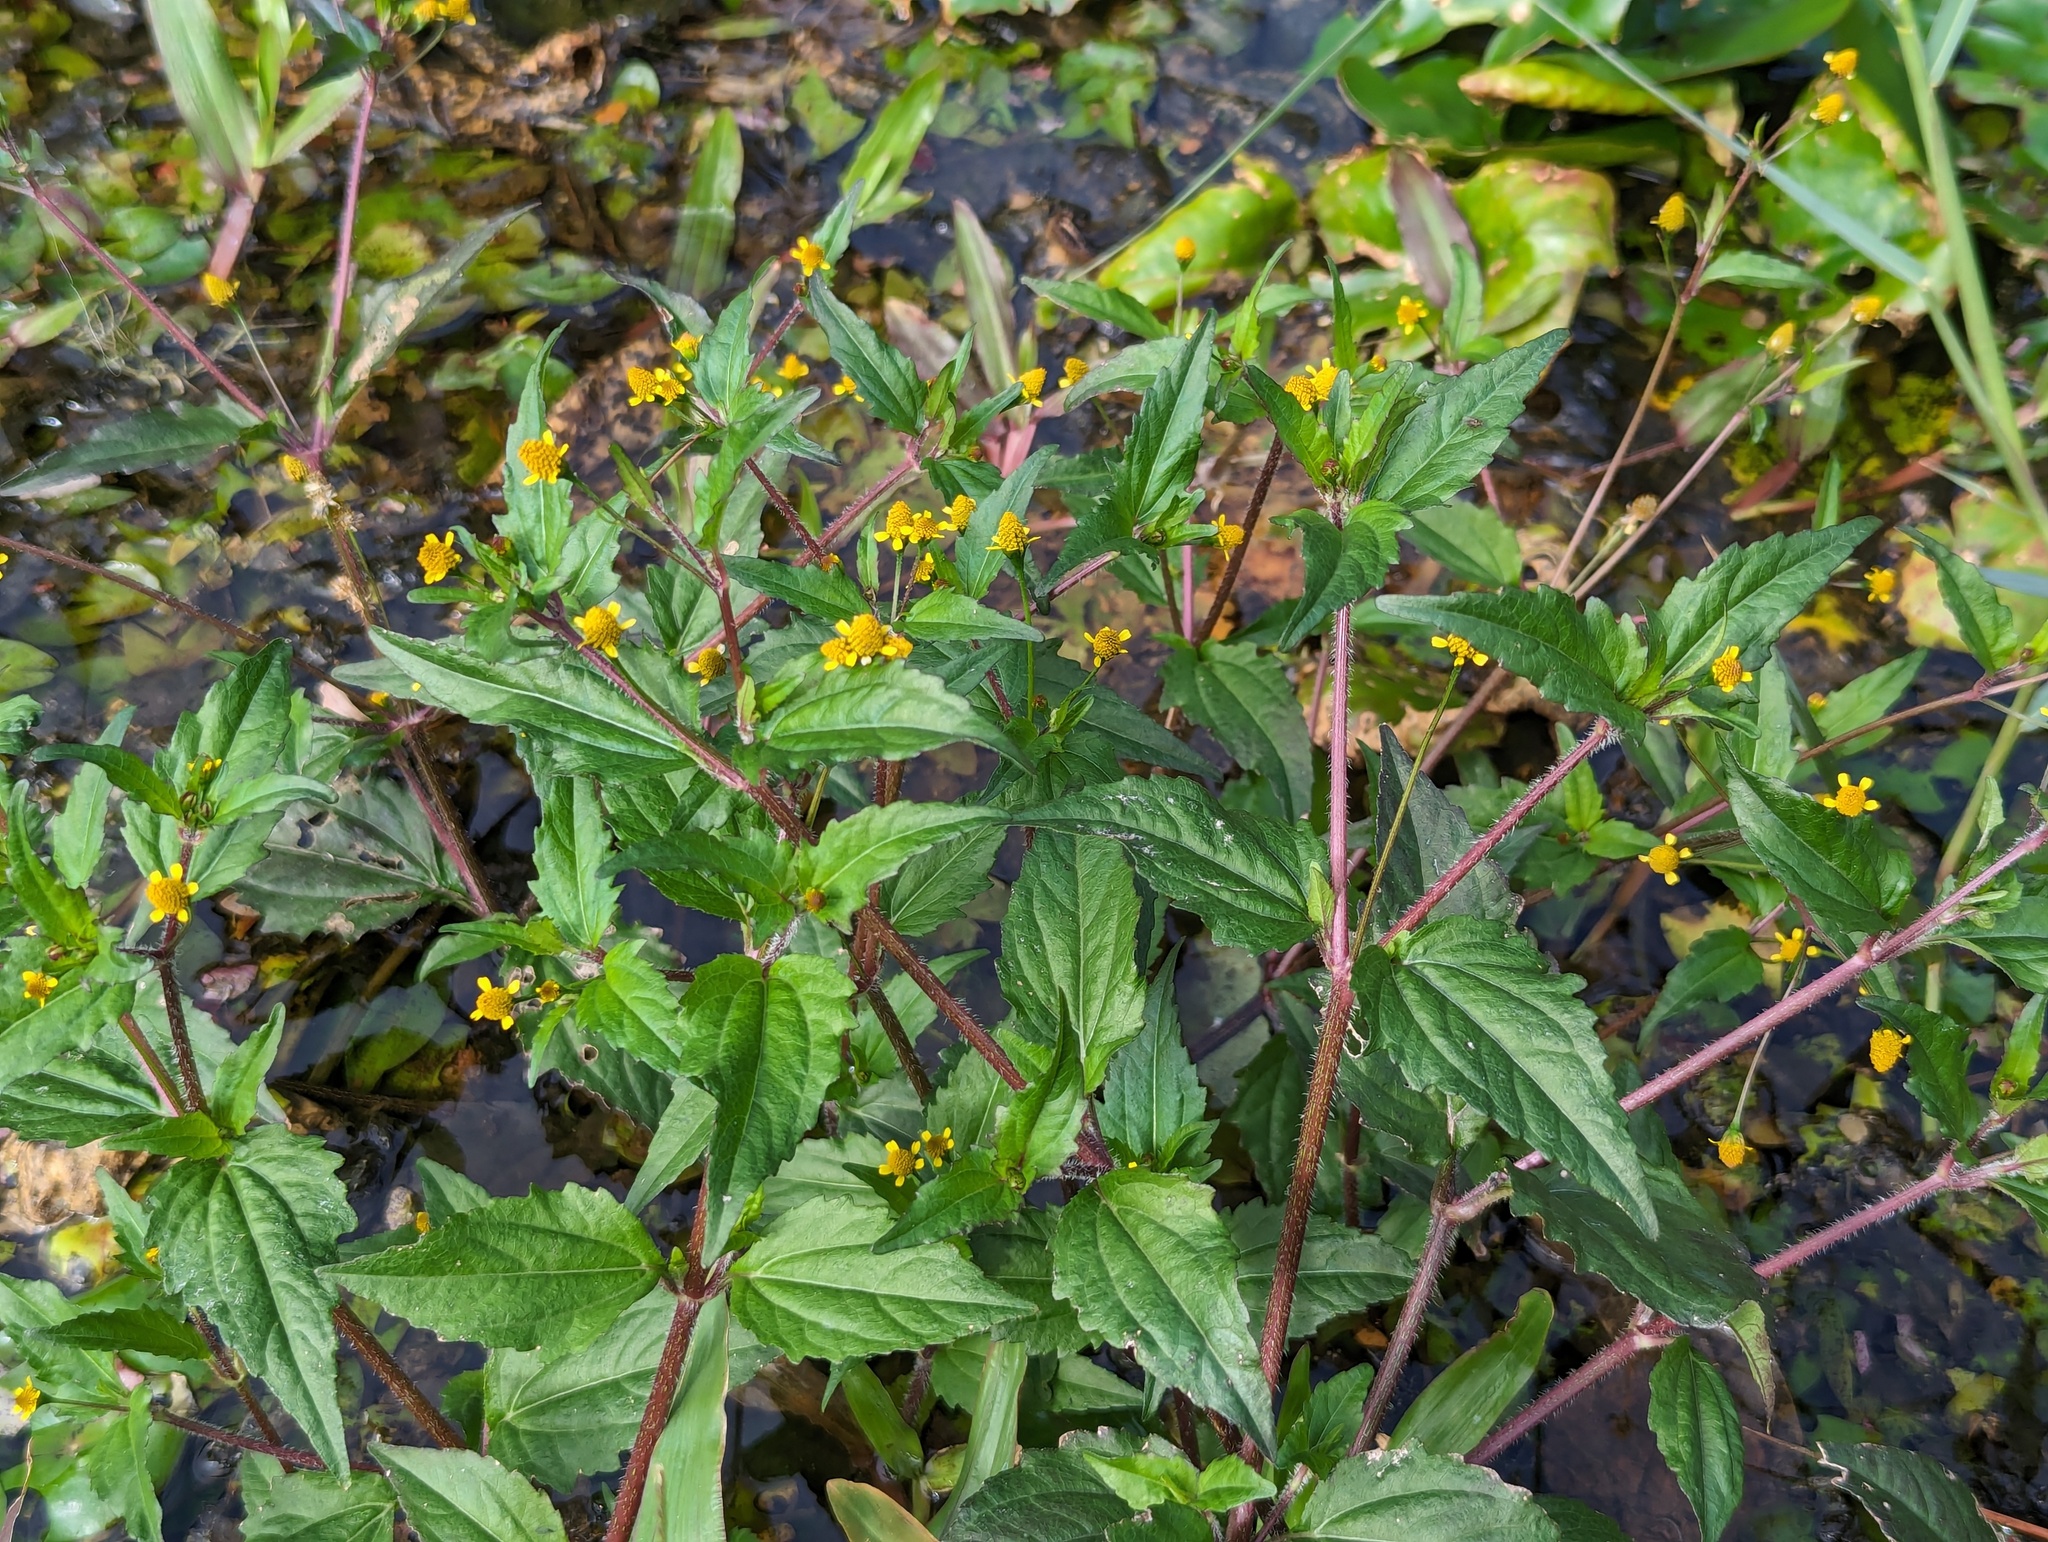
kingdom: Plantae
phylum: Tracheophyta
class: Magnoliopsida
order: Asterales
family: Asteraceae
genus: Acmella
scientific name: Acmella uliginosa
